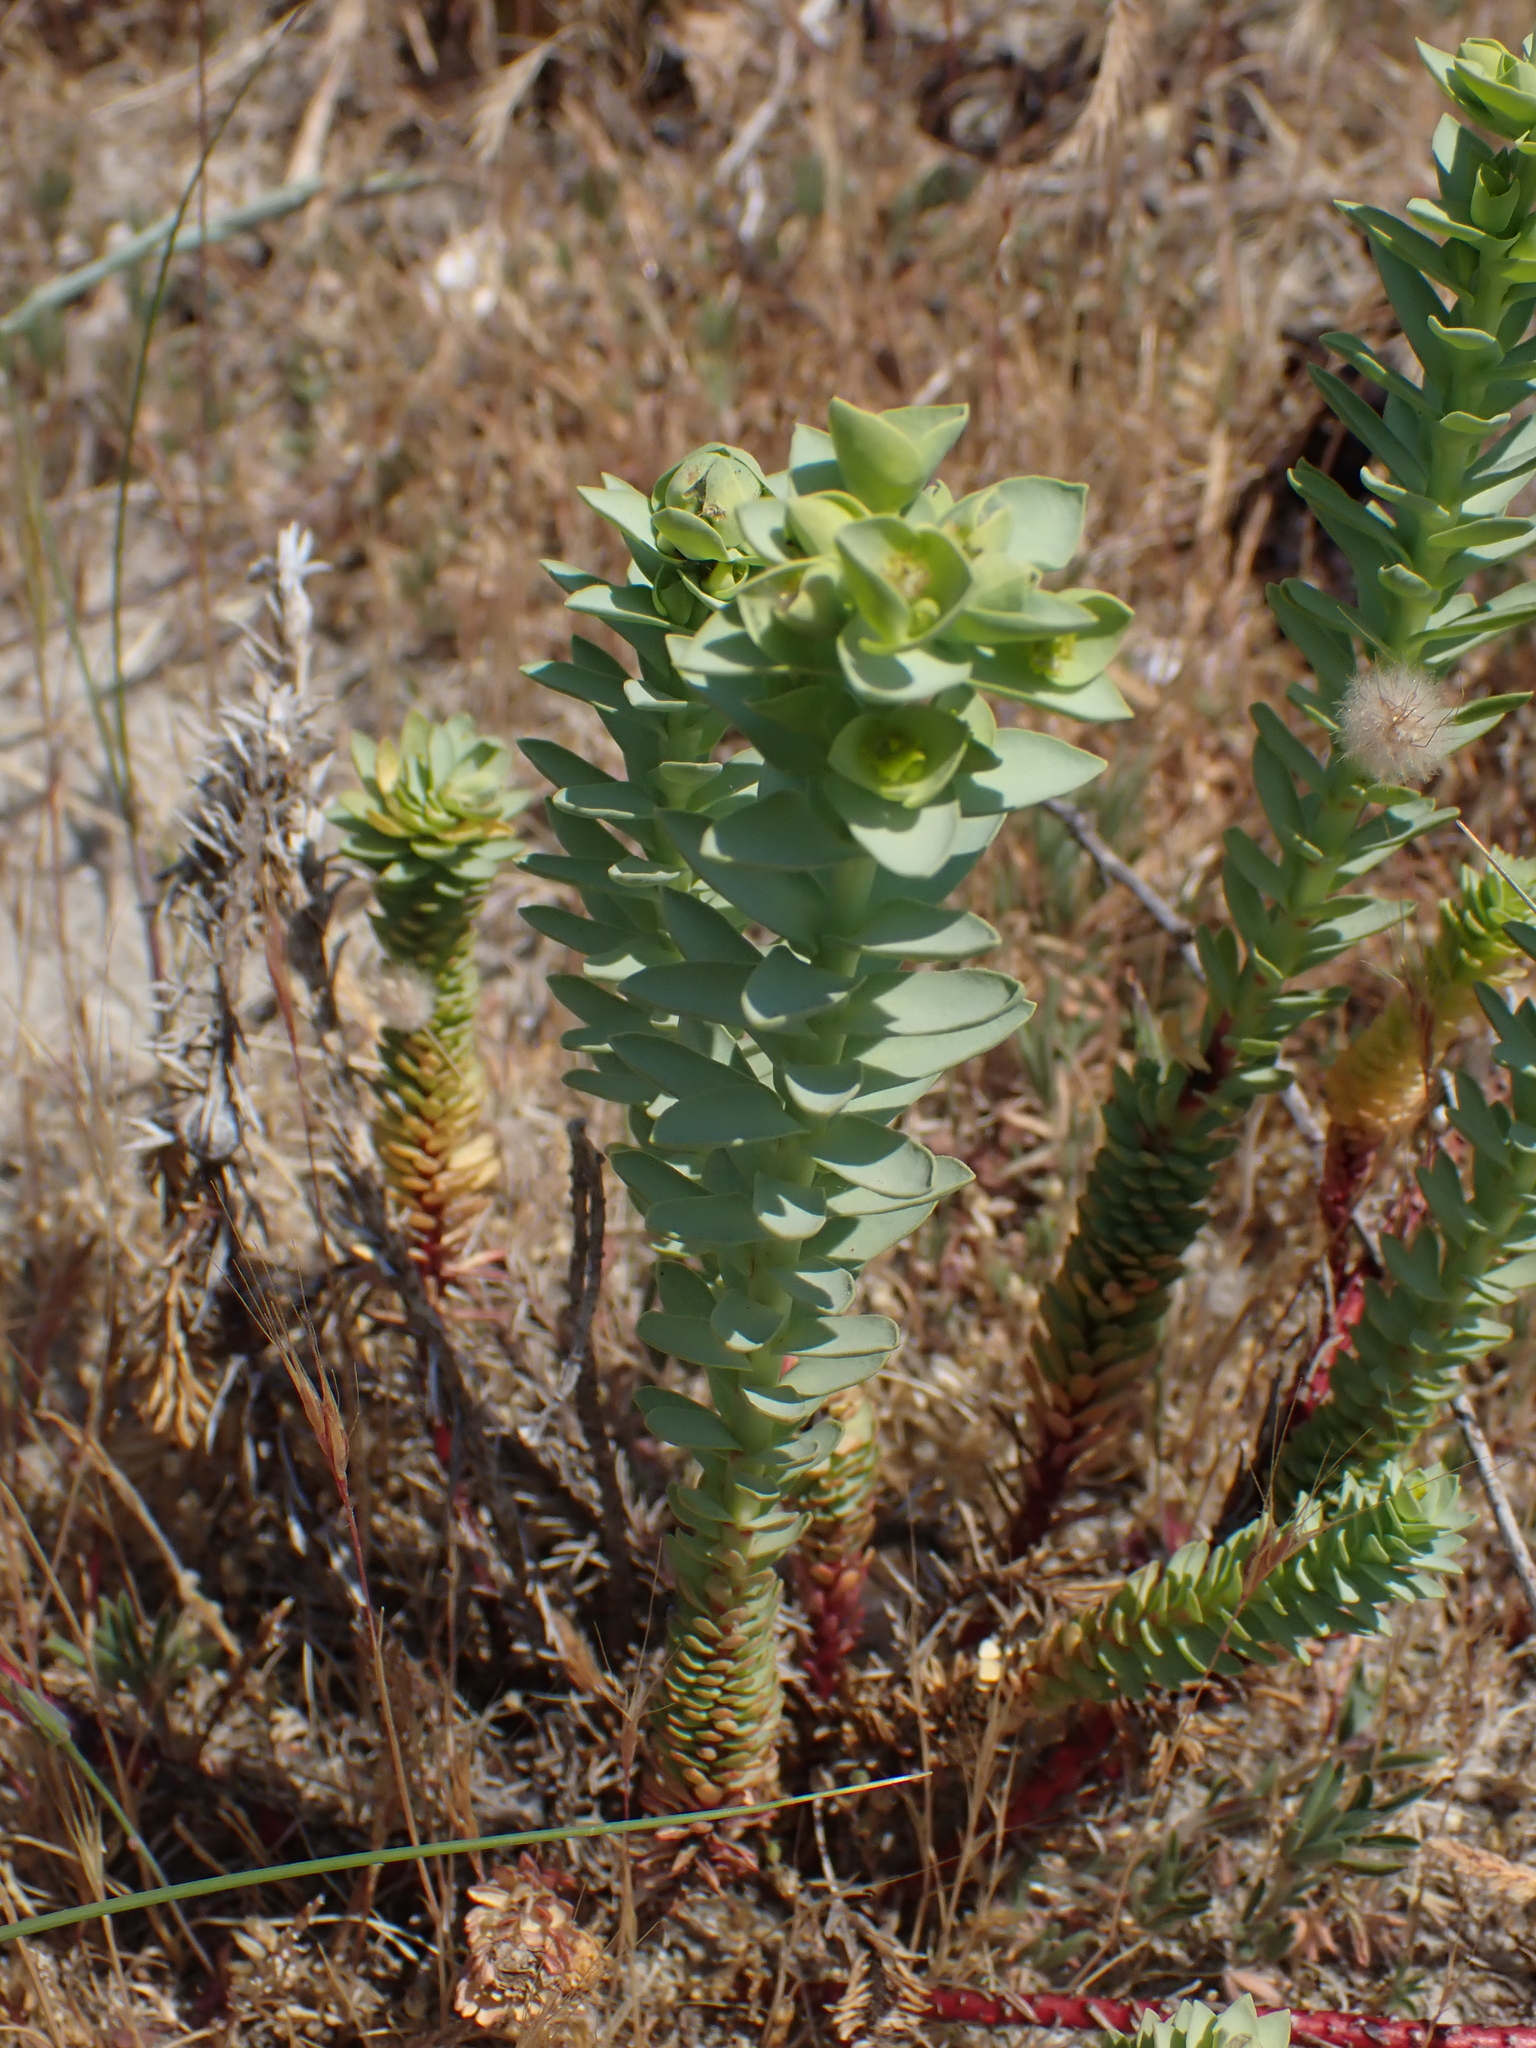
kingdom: Plantae
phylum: Tracheophyta
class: Magnoliopsida
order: Malpighiales
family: Euphorbiaceae
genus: Euphorbia
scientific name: Euphorbia paralias
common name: Sea spurge
